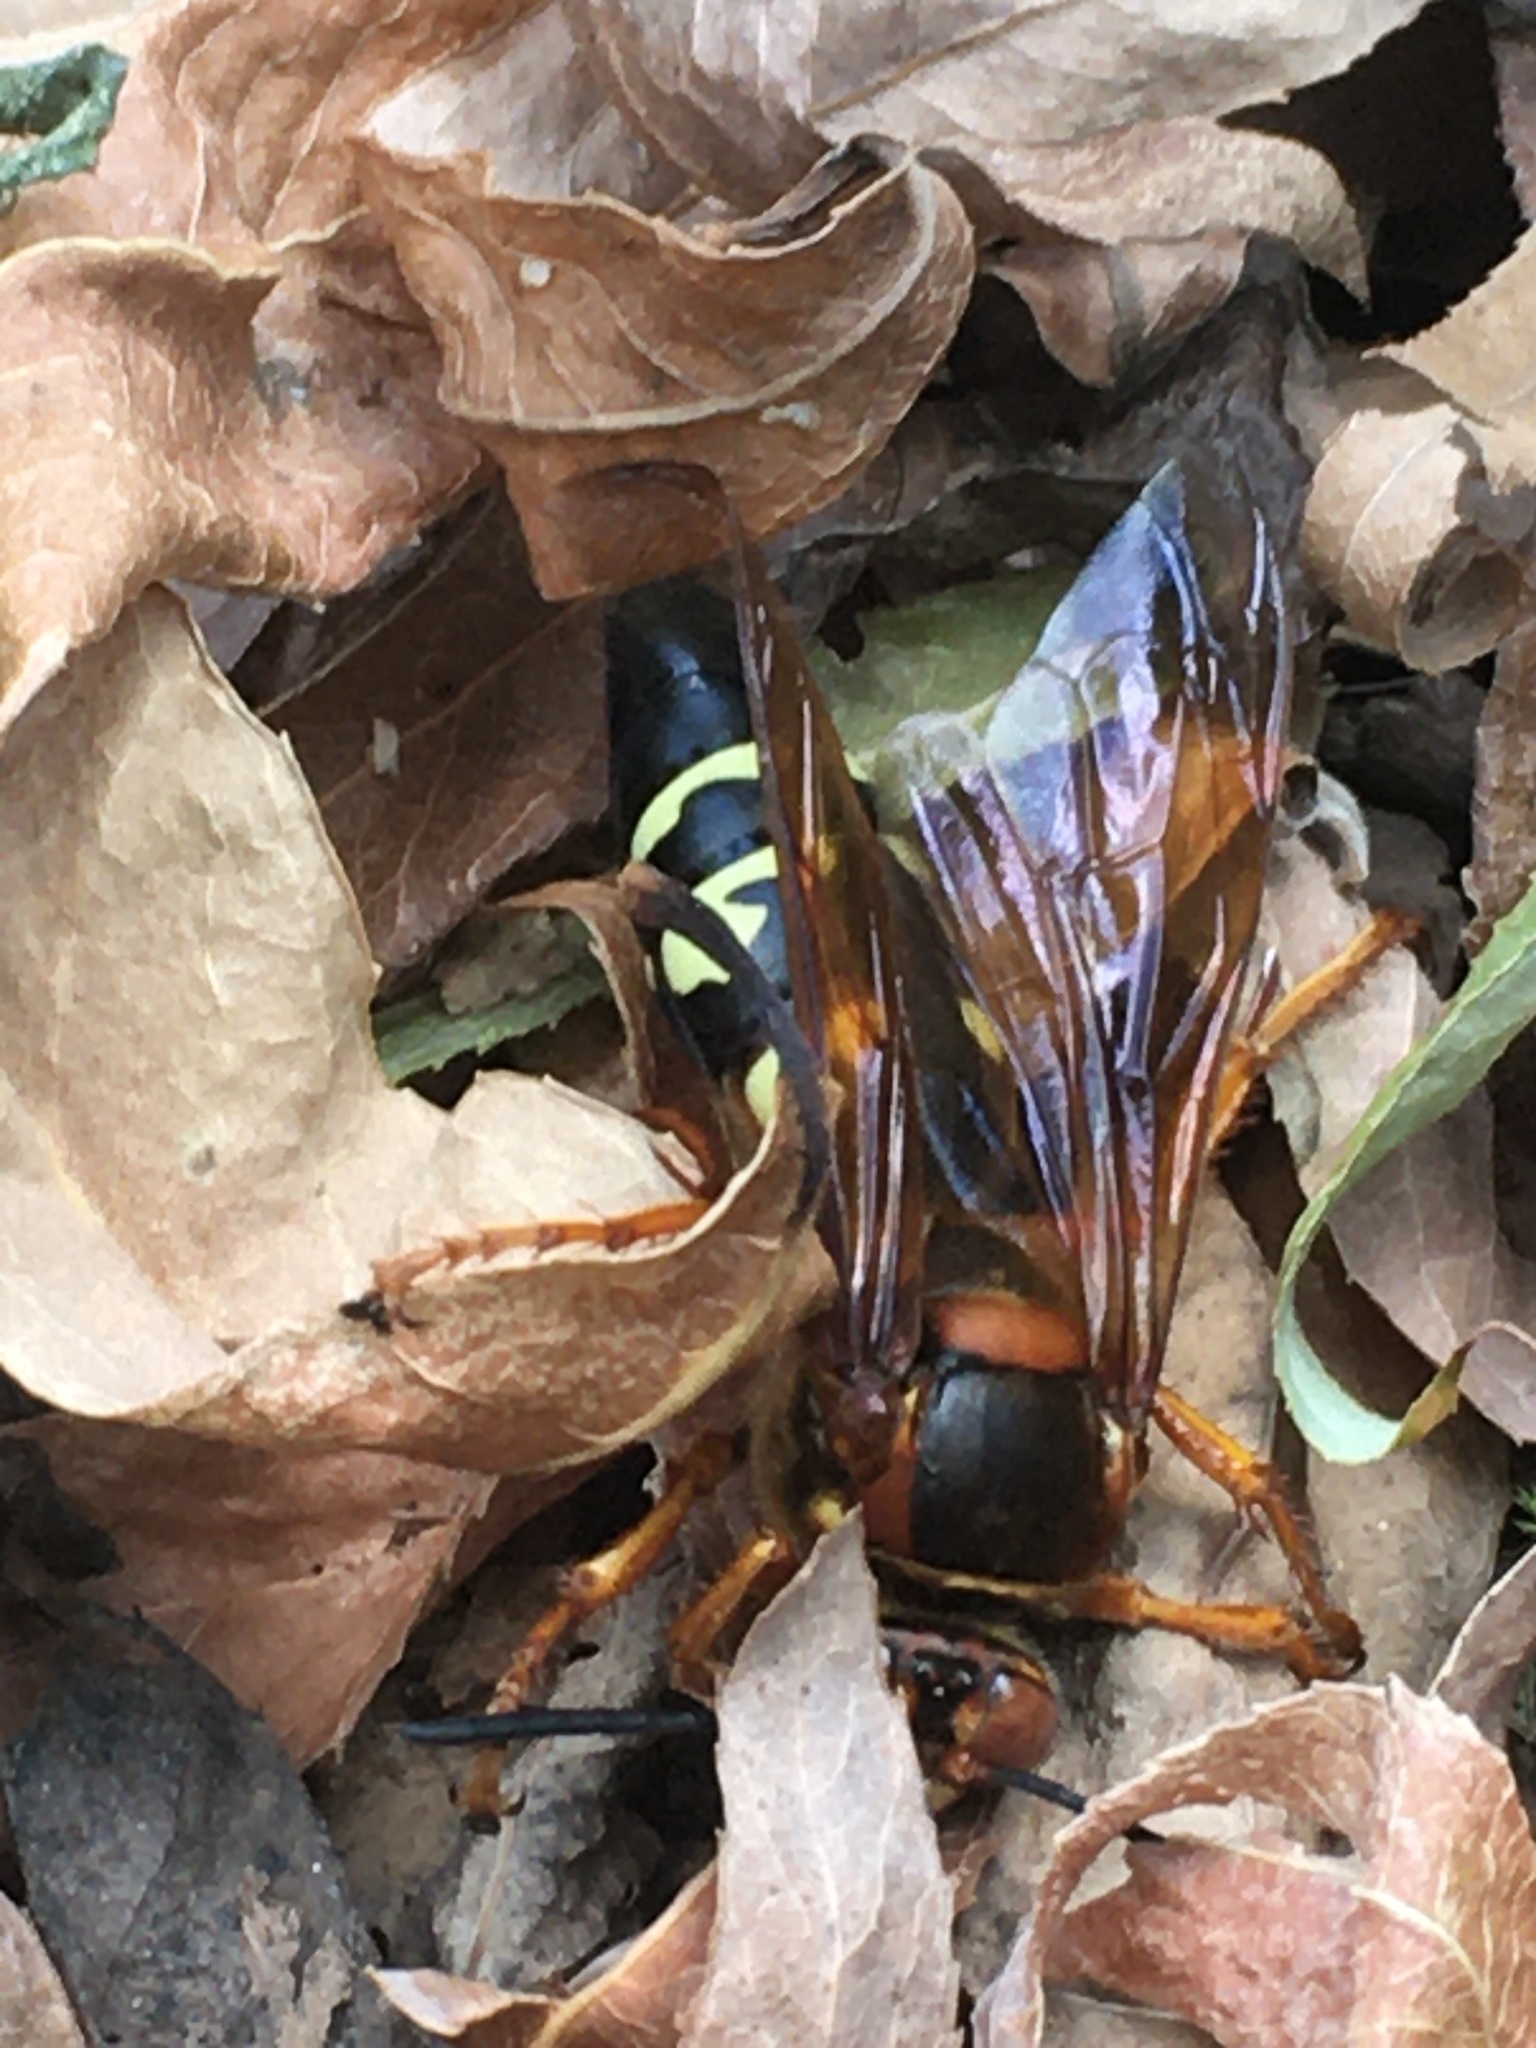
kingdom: Animalia
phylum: Arthropoda
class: Insecta
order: Hymenoptera
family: Crabronidae
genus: Sphecius
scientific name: Sphecius speciosus
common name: Cicada killer
